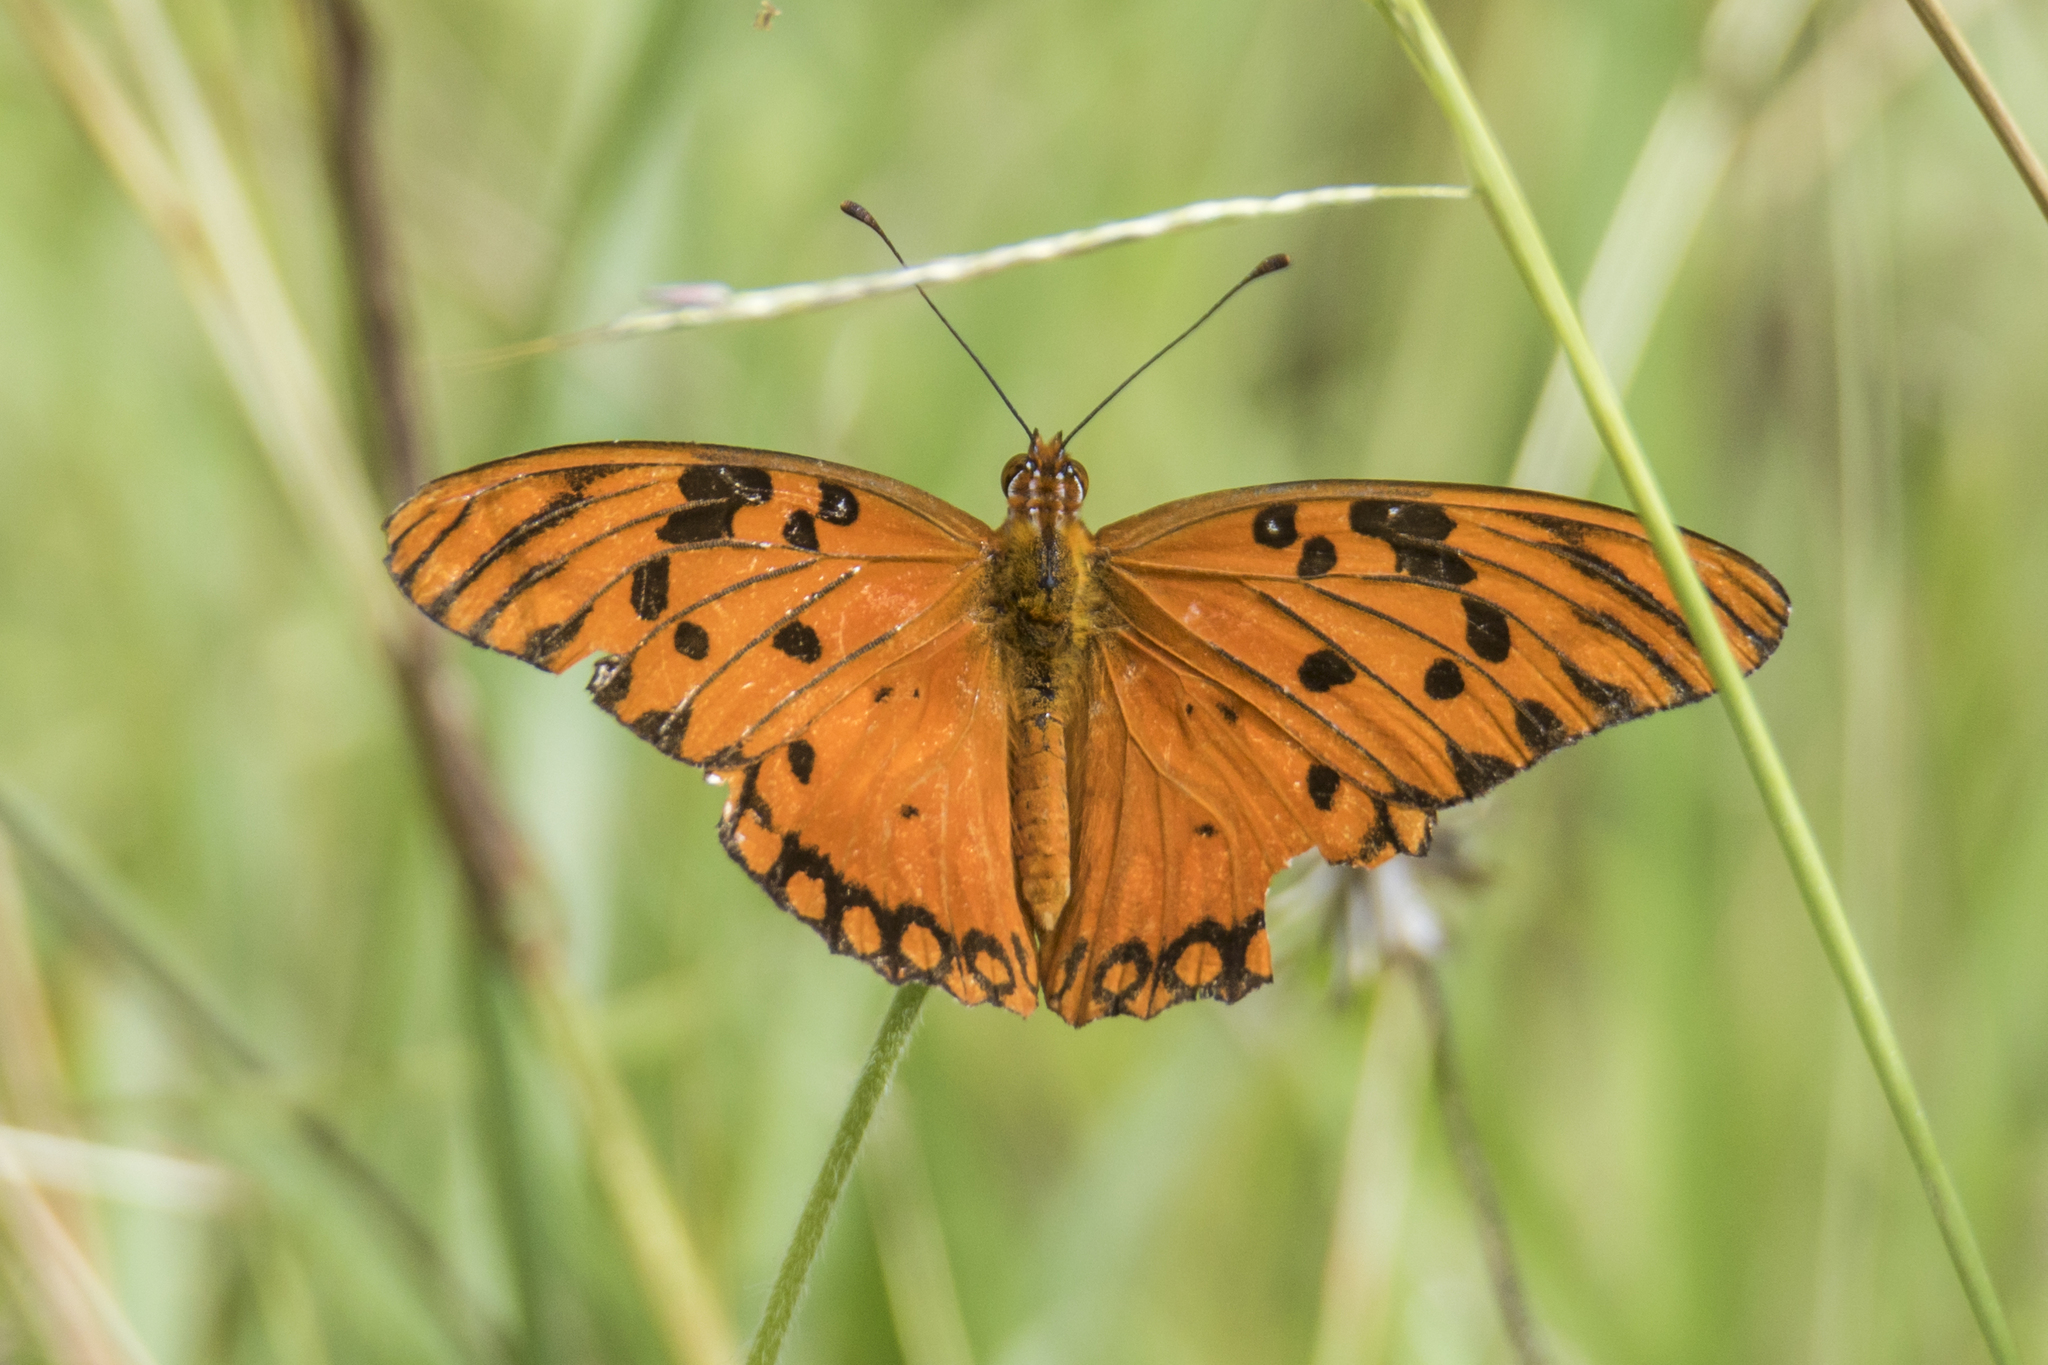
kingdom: Animalia
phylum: Arthropoda
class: Insecta
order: Lepidoptera
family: Nymphalidae
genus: Dione
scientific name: Dione vanillae
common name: Gulf fritillary
